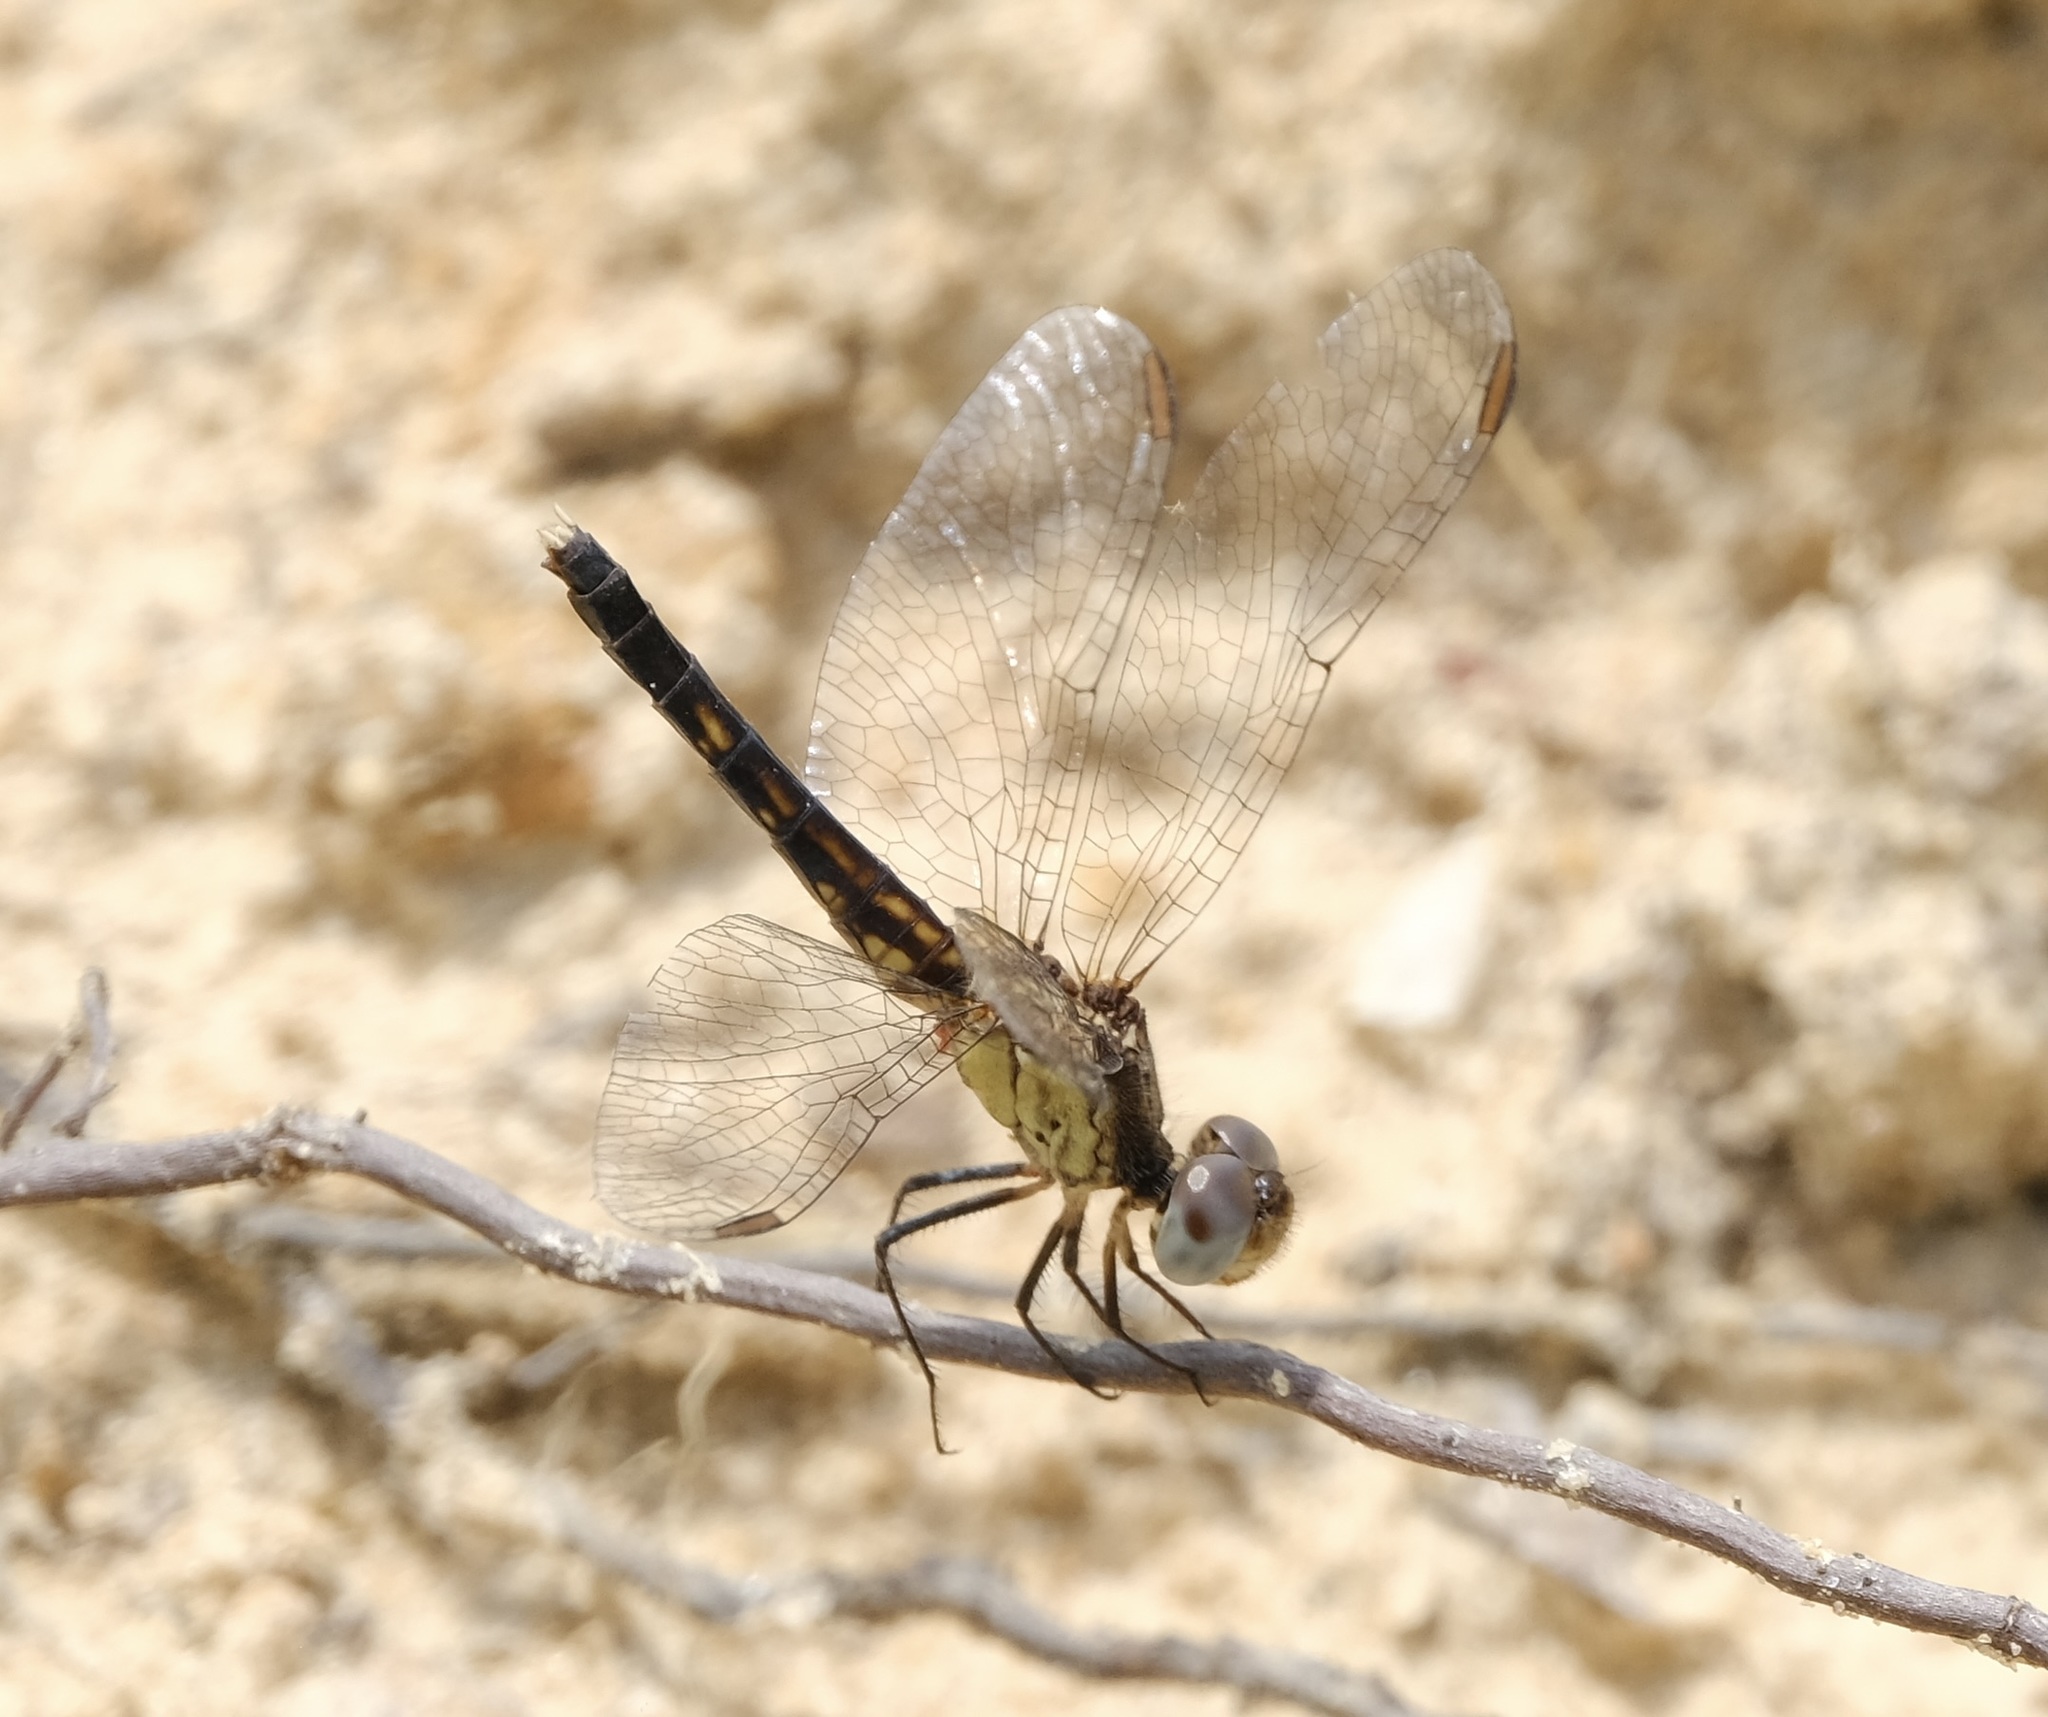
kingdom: Animalia
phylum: Arthropoda
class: Insecta
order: Odonata
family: Libellulidae
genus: Erythrodiplax
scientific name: Erythrodiplax minuscula
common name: Little blue dragonlet
